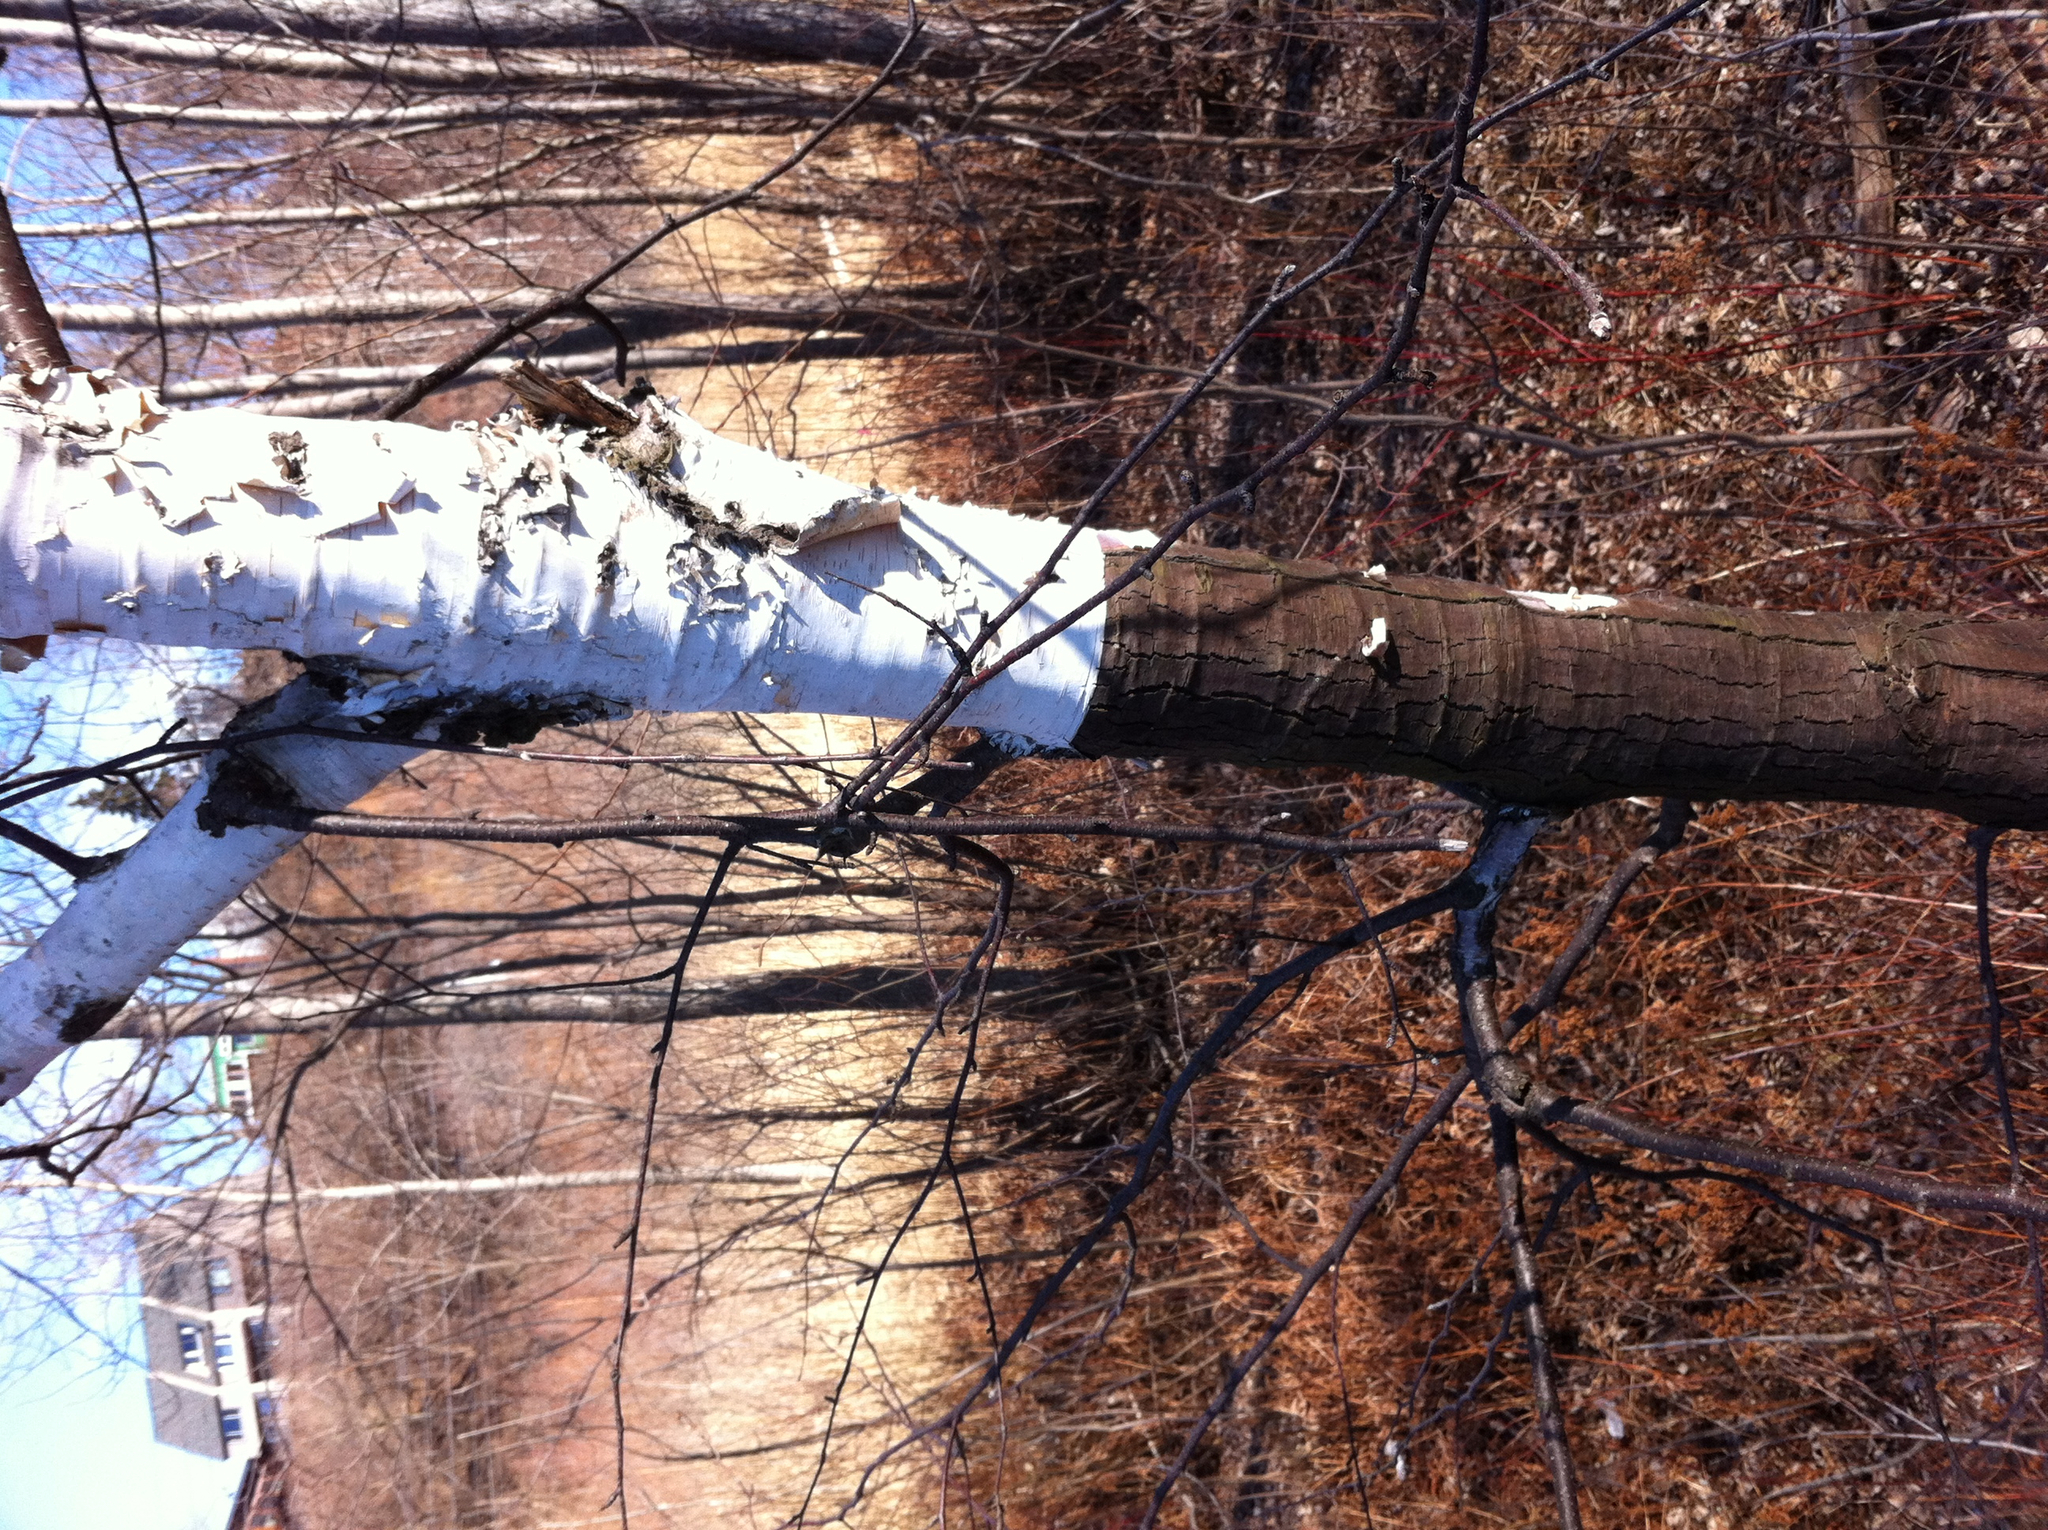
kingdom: Plantae
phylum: Tracheophyta
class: Magnoliopsida
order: Fagales
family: Betulaceae
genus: Betula
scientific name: Betula papyrifera
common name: Paper birch
